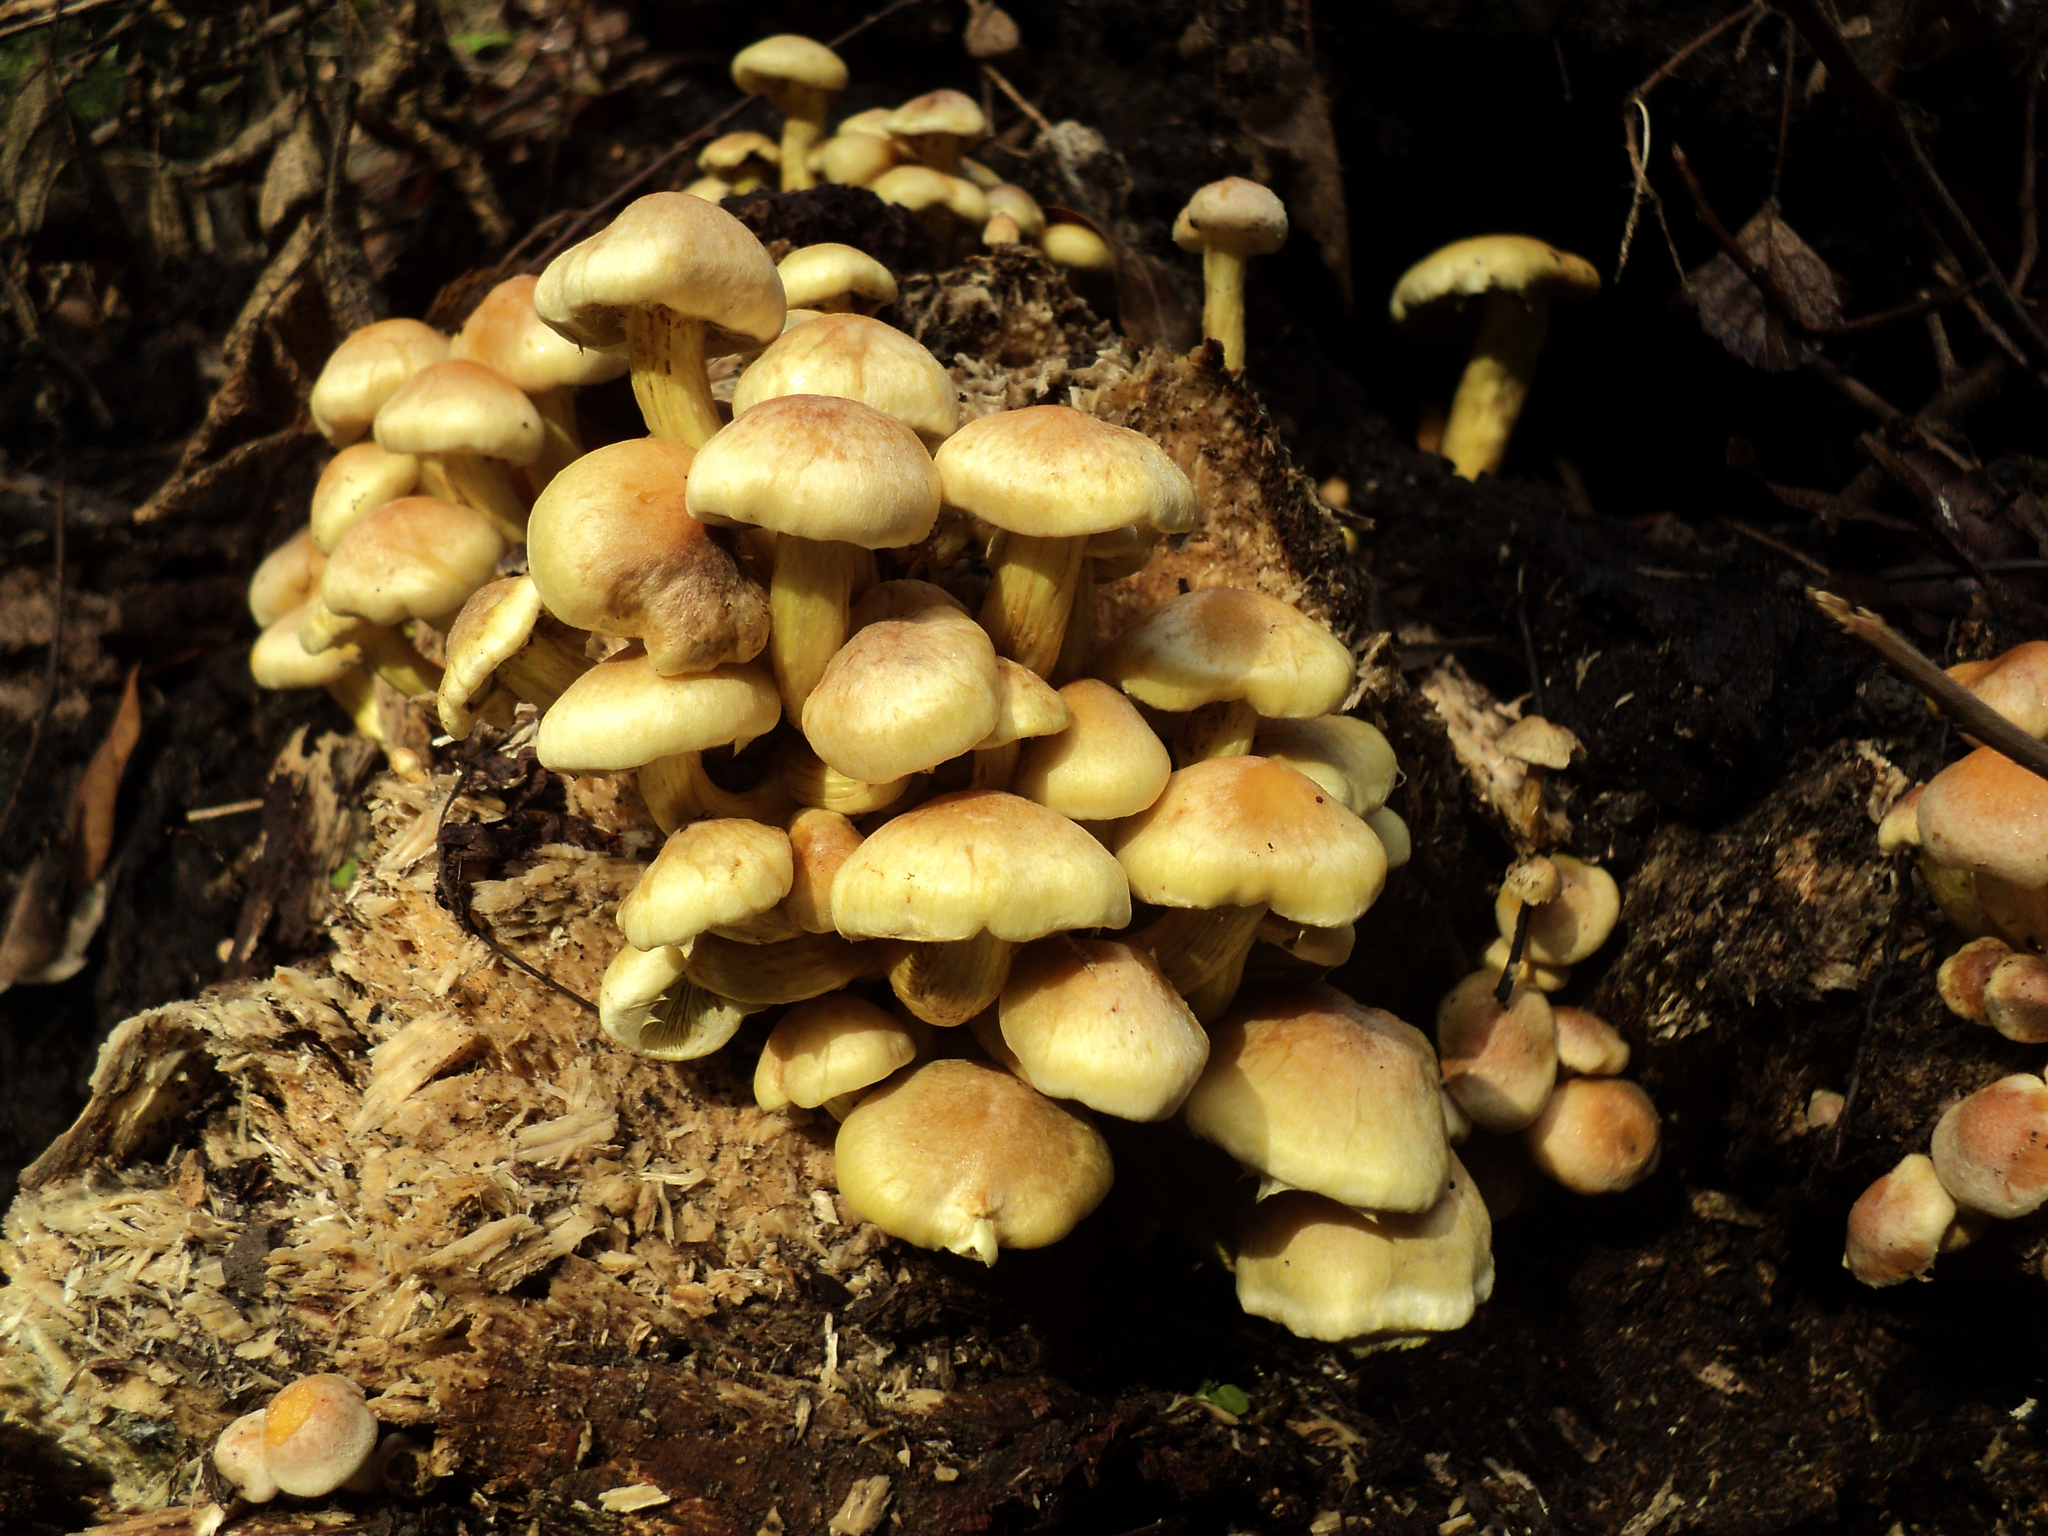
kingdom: Fungi
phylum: Basidiomycota
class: Agaricomycetes
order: Agaricales
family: Strophariaceae
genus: Hypholoma
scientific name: Hypholoma fasciculare
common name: Sulphur tuft
